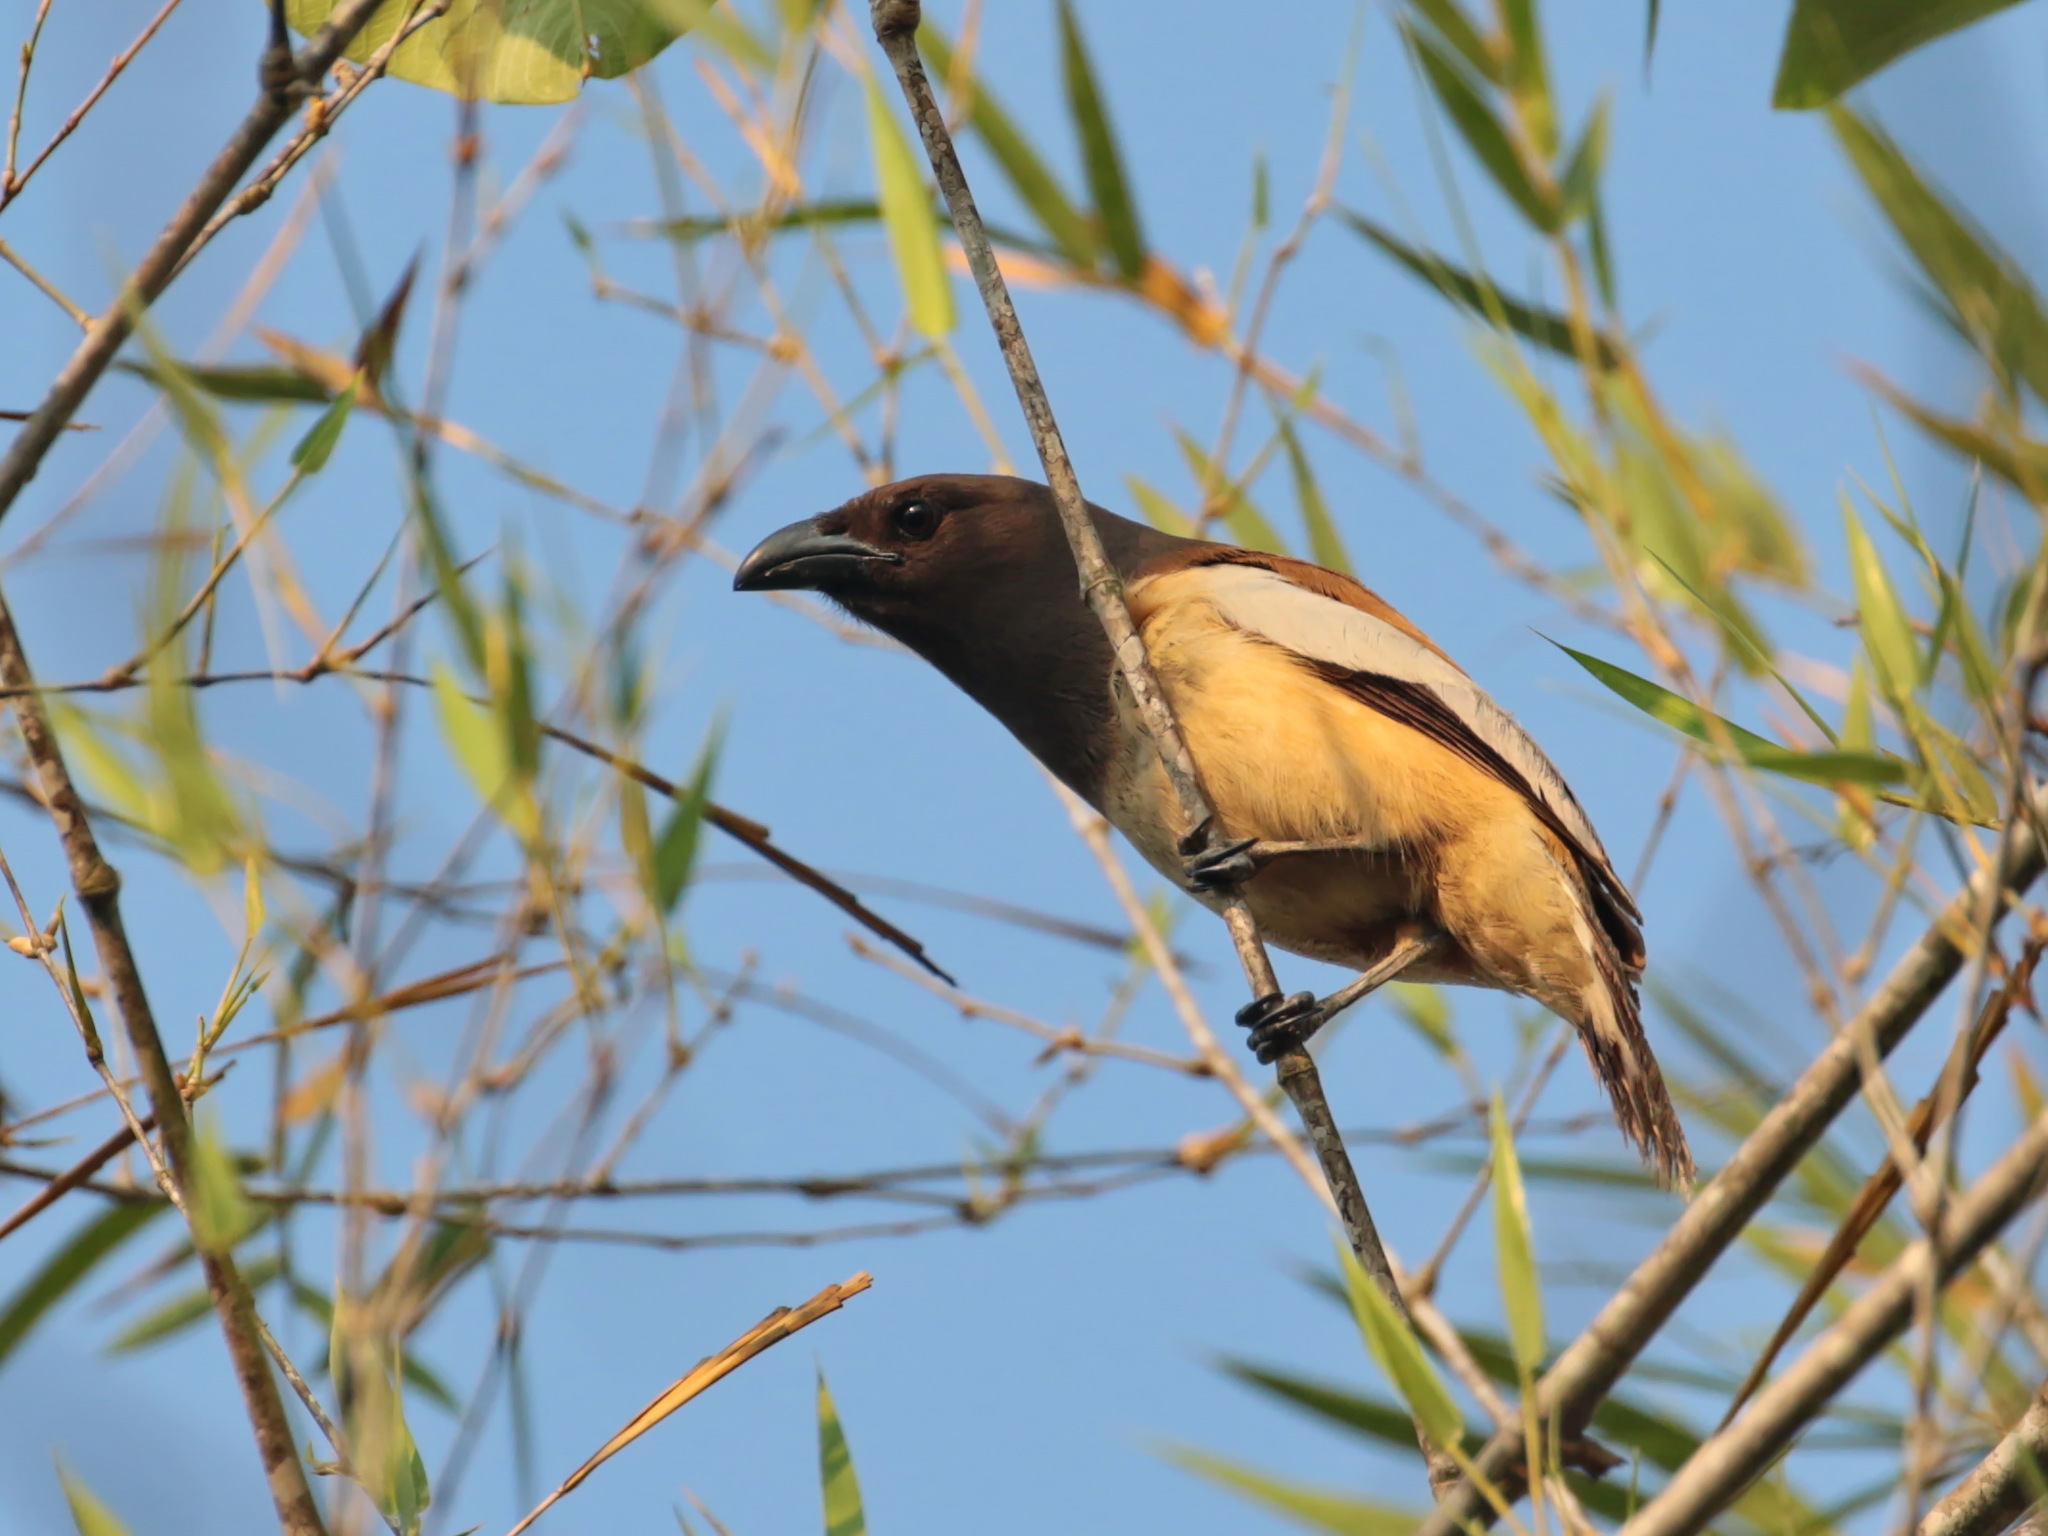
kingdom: Animalia
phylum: Chordata
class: Aves
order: Passeriformes
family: Corvidae
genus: Dendrocitta
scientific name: Dendrocitta vagabunda
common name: Rufous treepie
